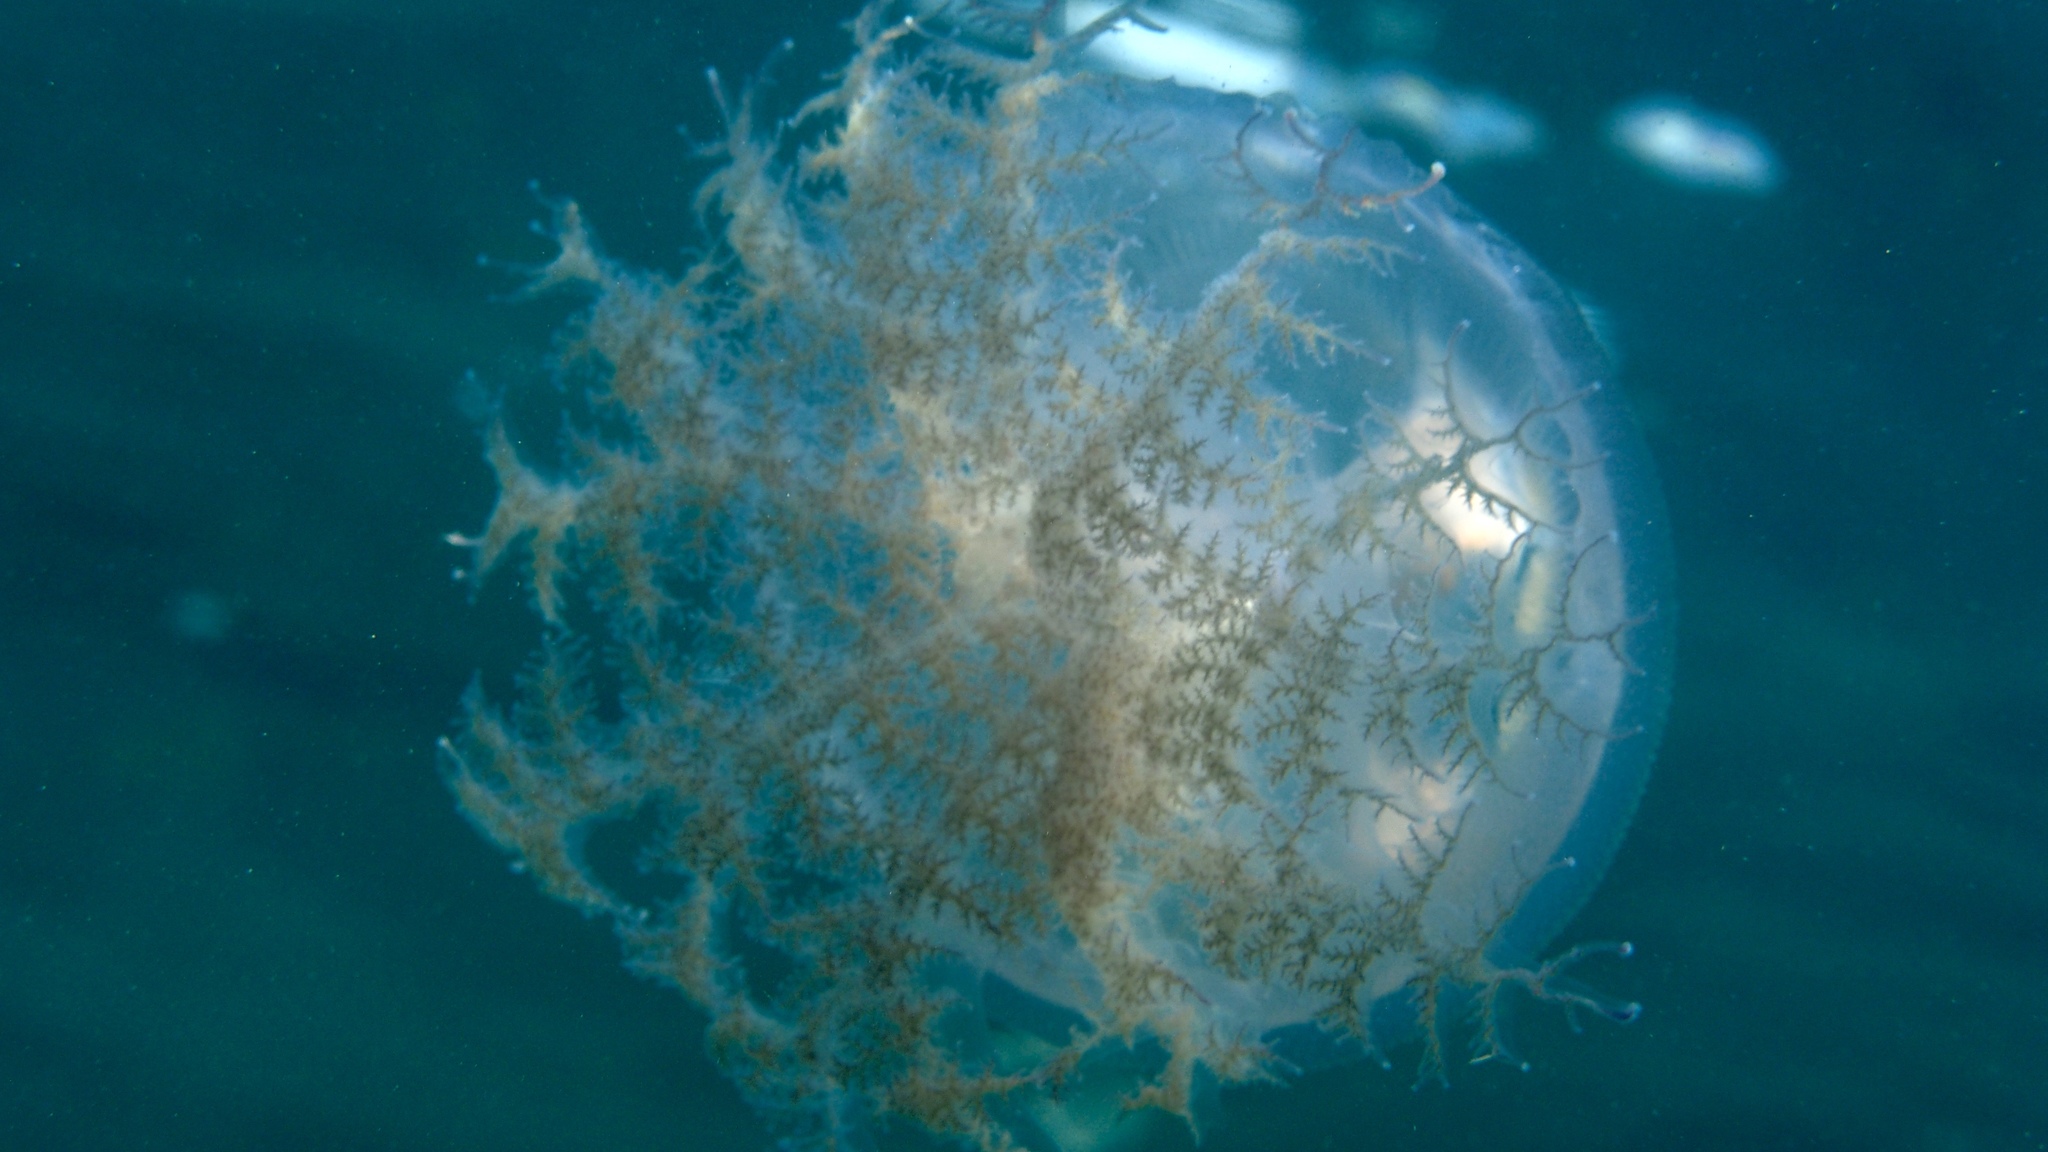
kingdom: Animalia
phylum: Cnidaria
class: Scyphozoa
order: Rhizostomeae
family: Lychnorhizidae
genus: Pseudorhiza
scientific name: Pseudorhiza haeckeli
